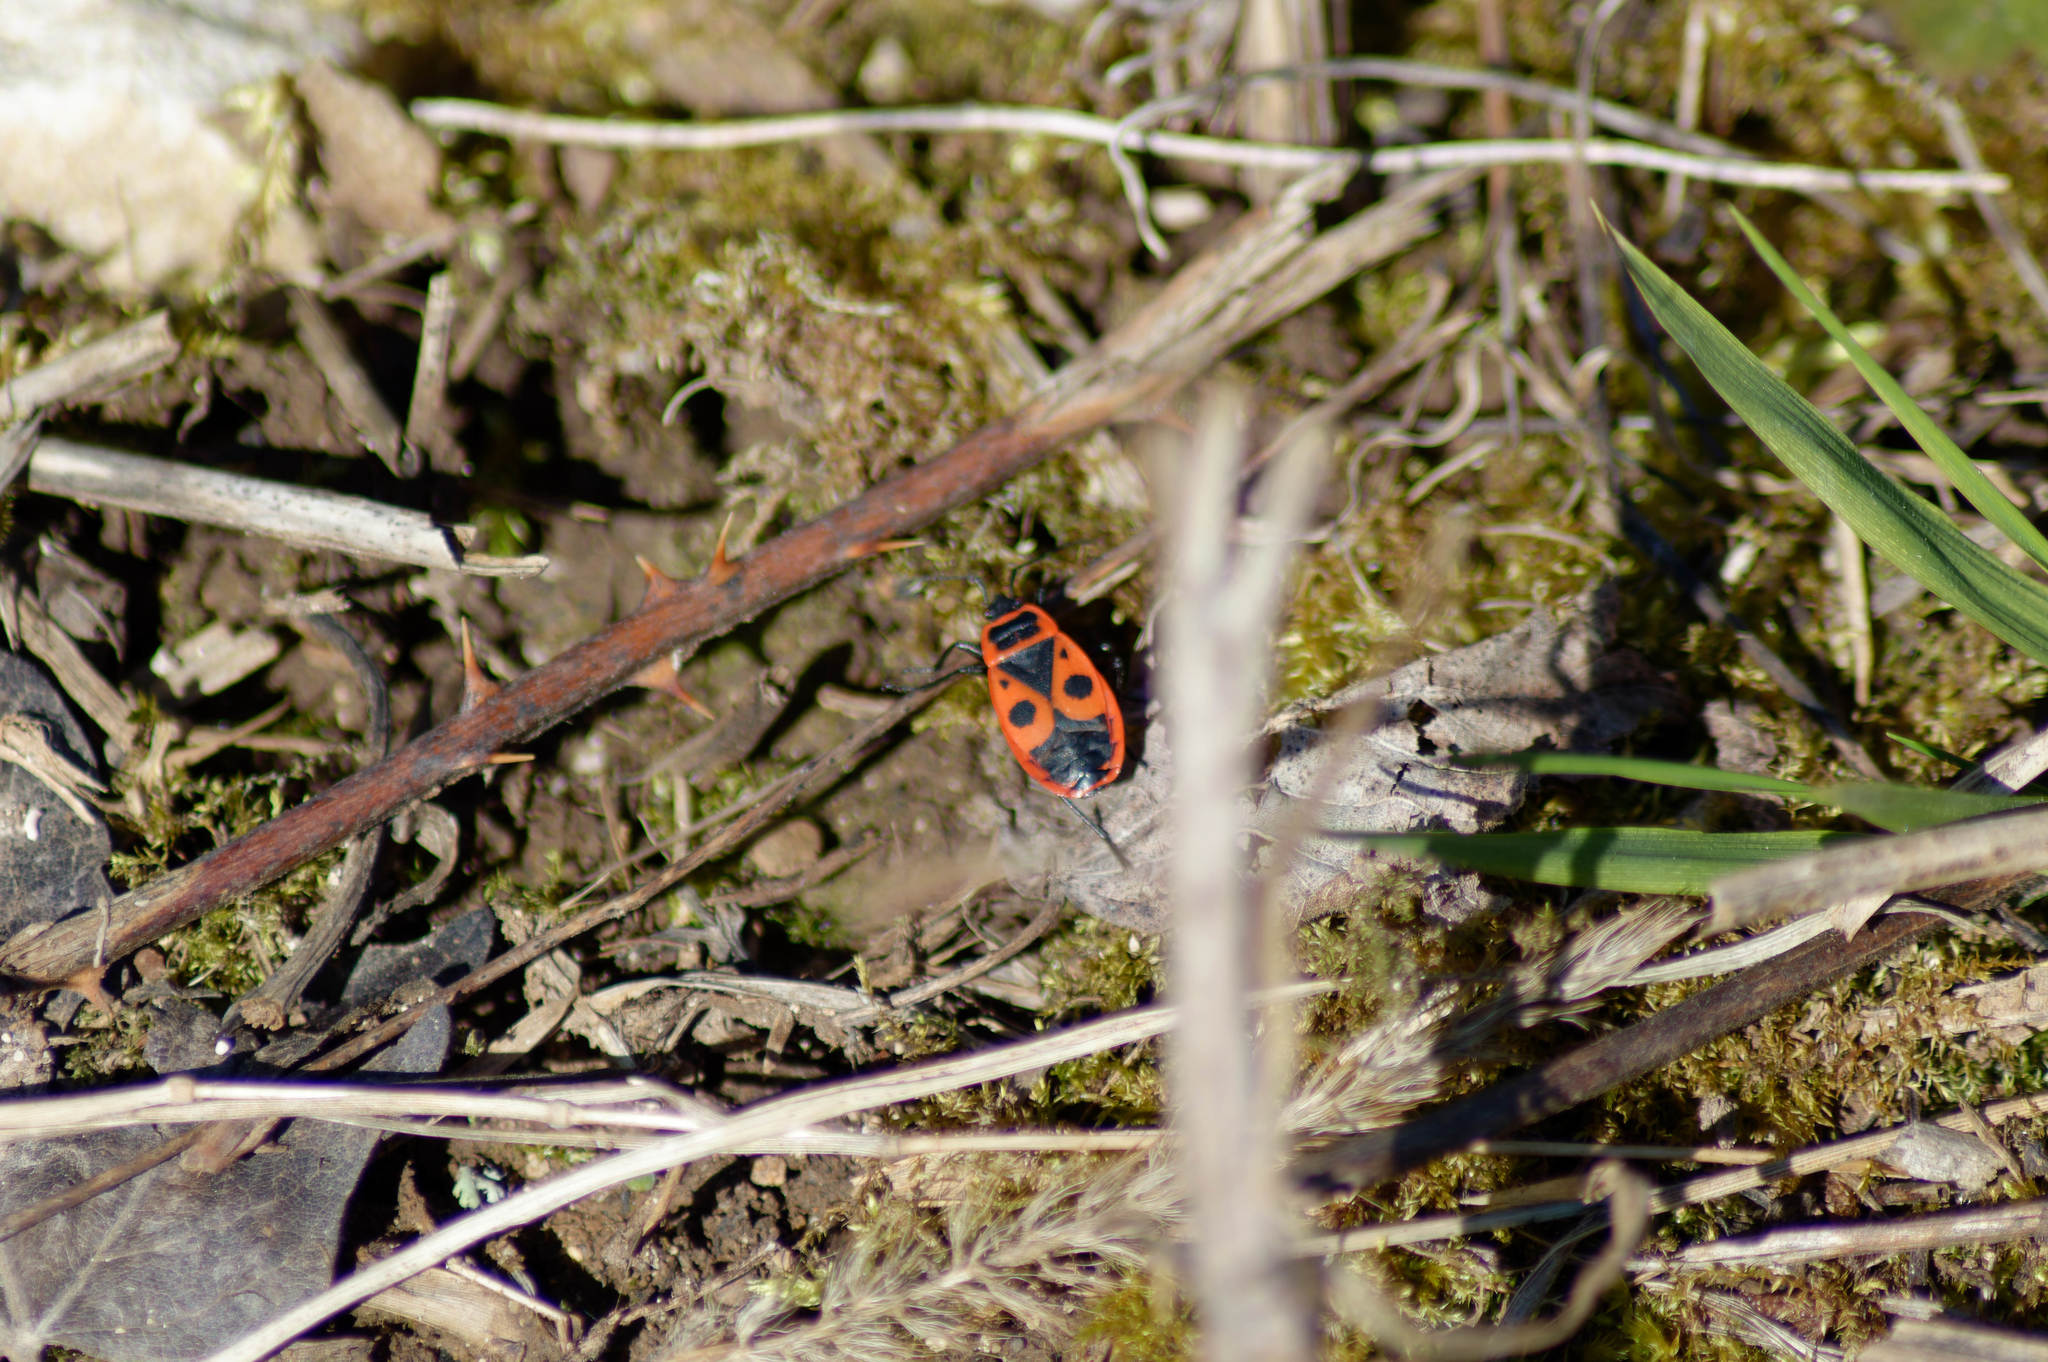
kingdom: Animalia
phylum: Arthropoda
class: Insecta
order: Hemiptera
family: Pyrrhocoridae
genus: Pyrrhocoris
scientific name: Pyrrhocoris apterus
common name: Firebug
